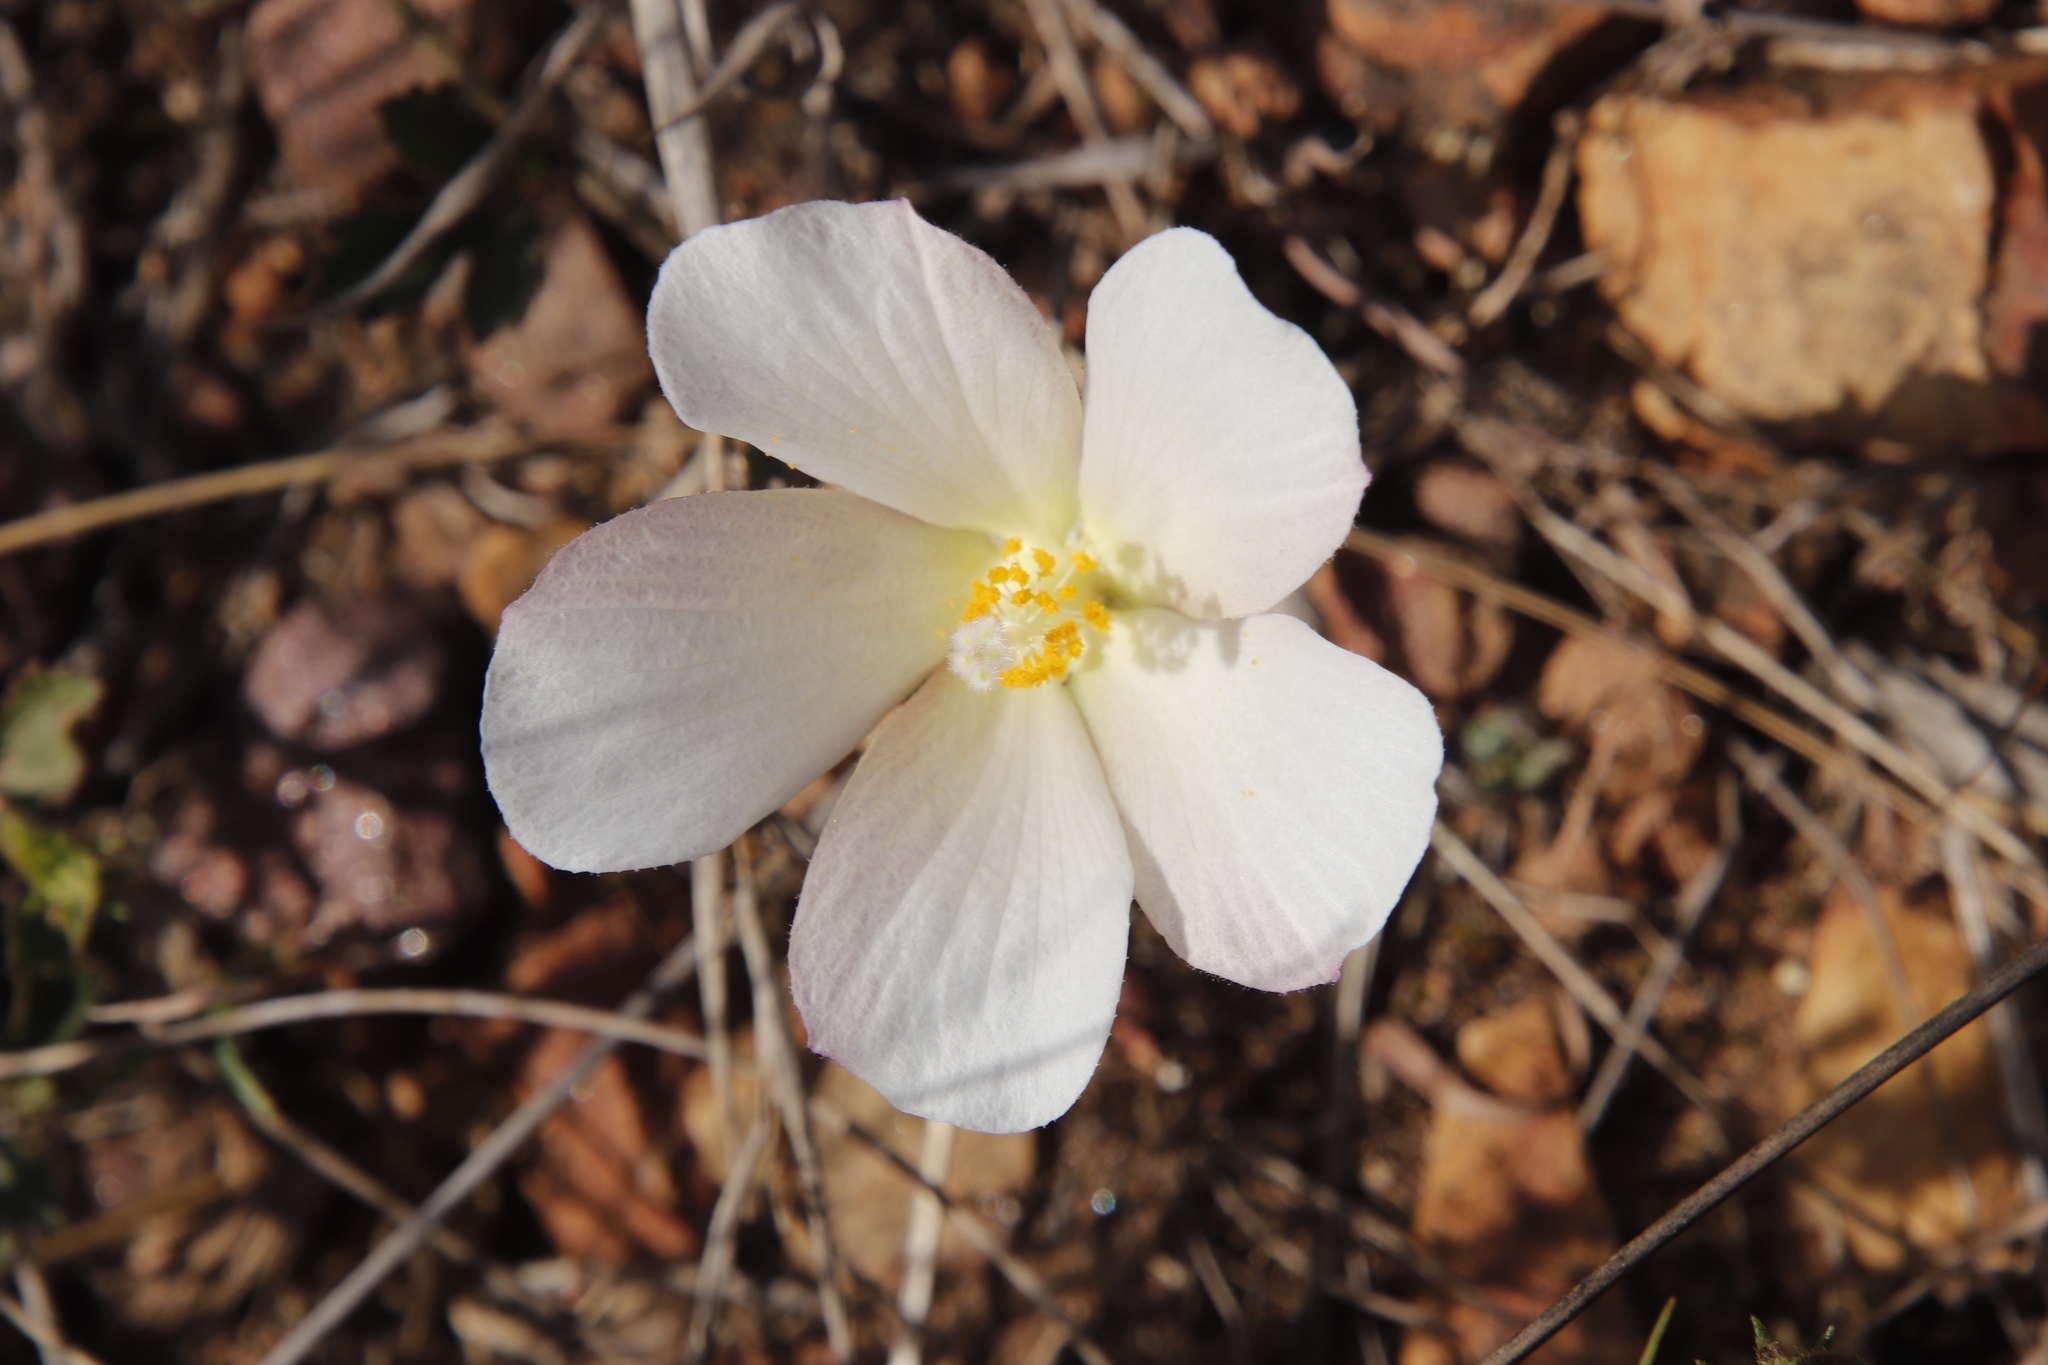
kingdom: Plantae
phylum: Tracheophyta
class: Magnoliopsida
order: Malvales
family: Malvaceae
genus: Hibiscus
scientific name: Hibiscus pusillus
